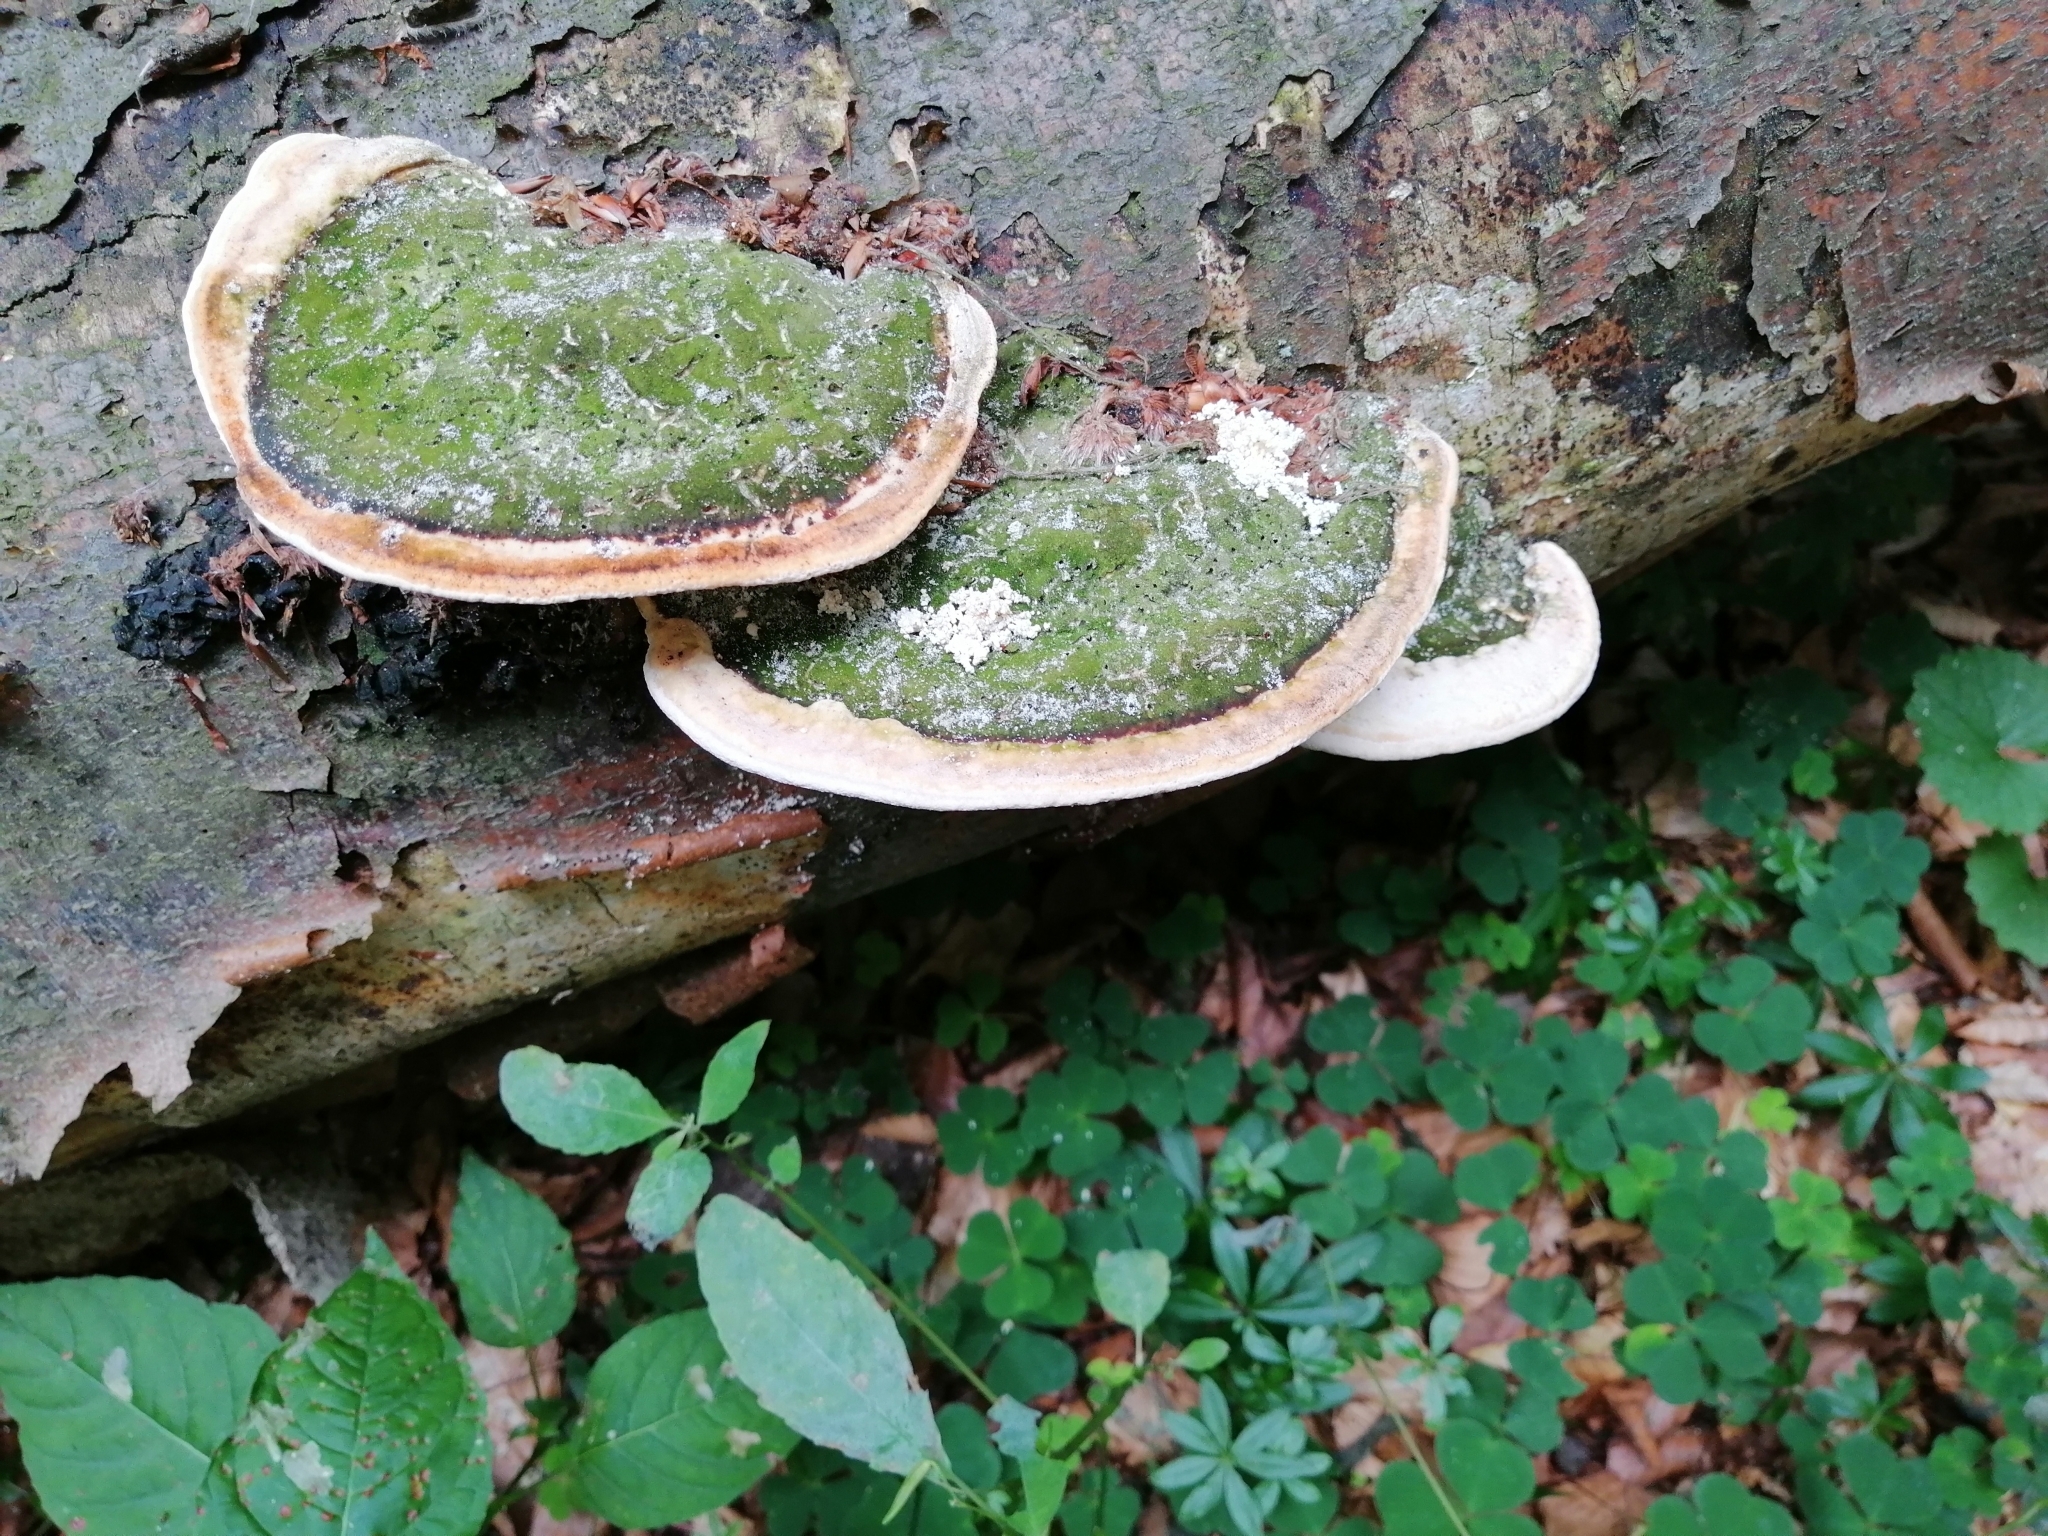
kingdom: Fungi
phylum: Basidiomycota
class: Agaricomycetes
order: Polyporales
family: Polyporaceae
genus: Trametes
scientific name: Trametes gibbosa
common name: Lumpy bracket
